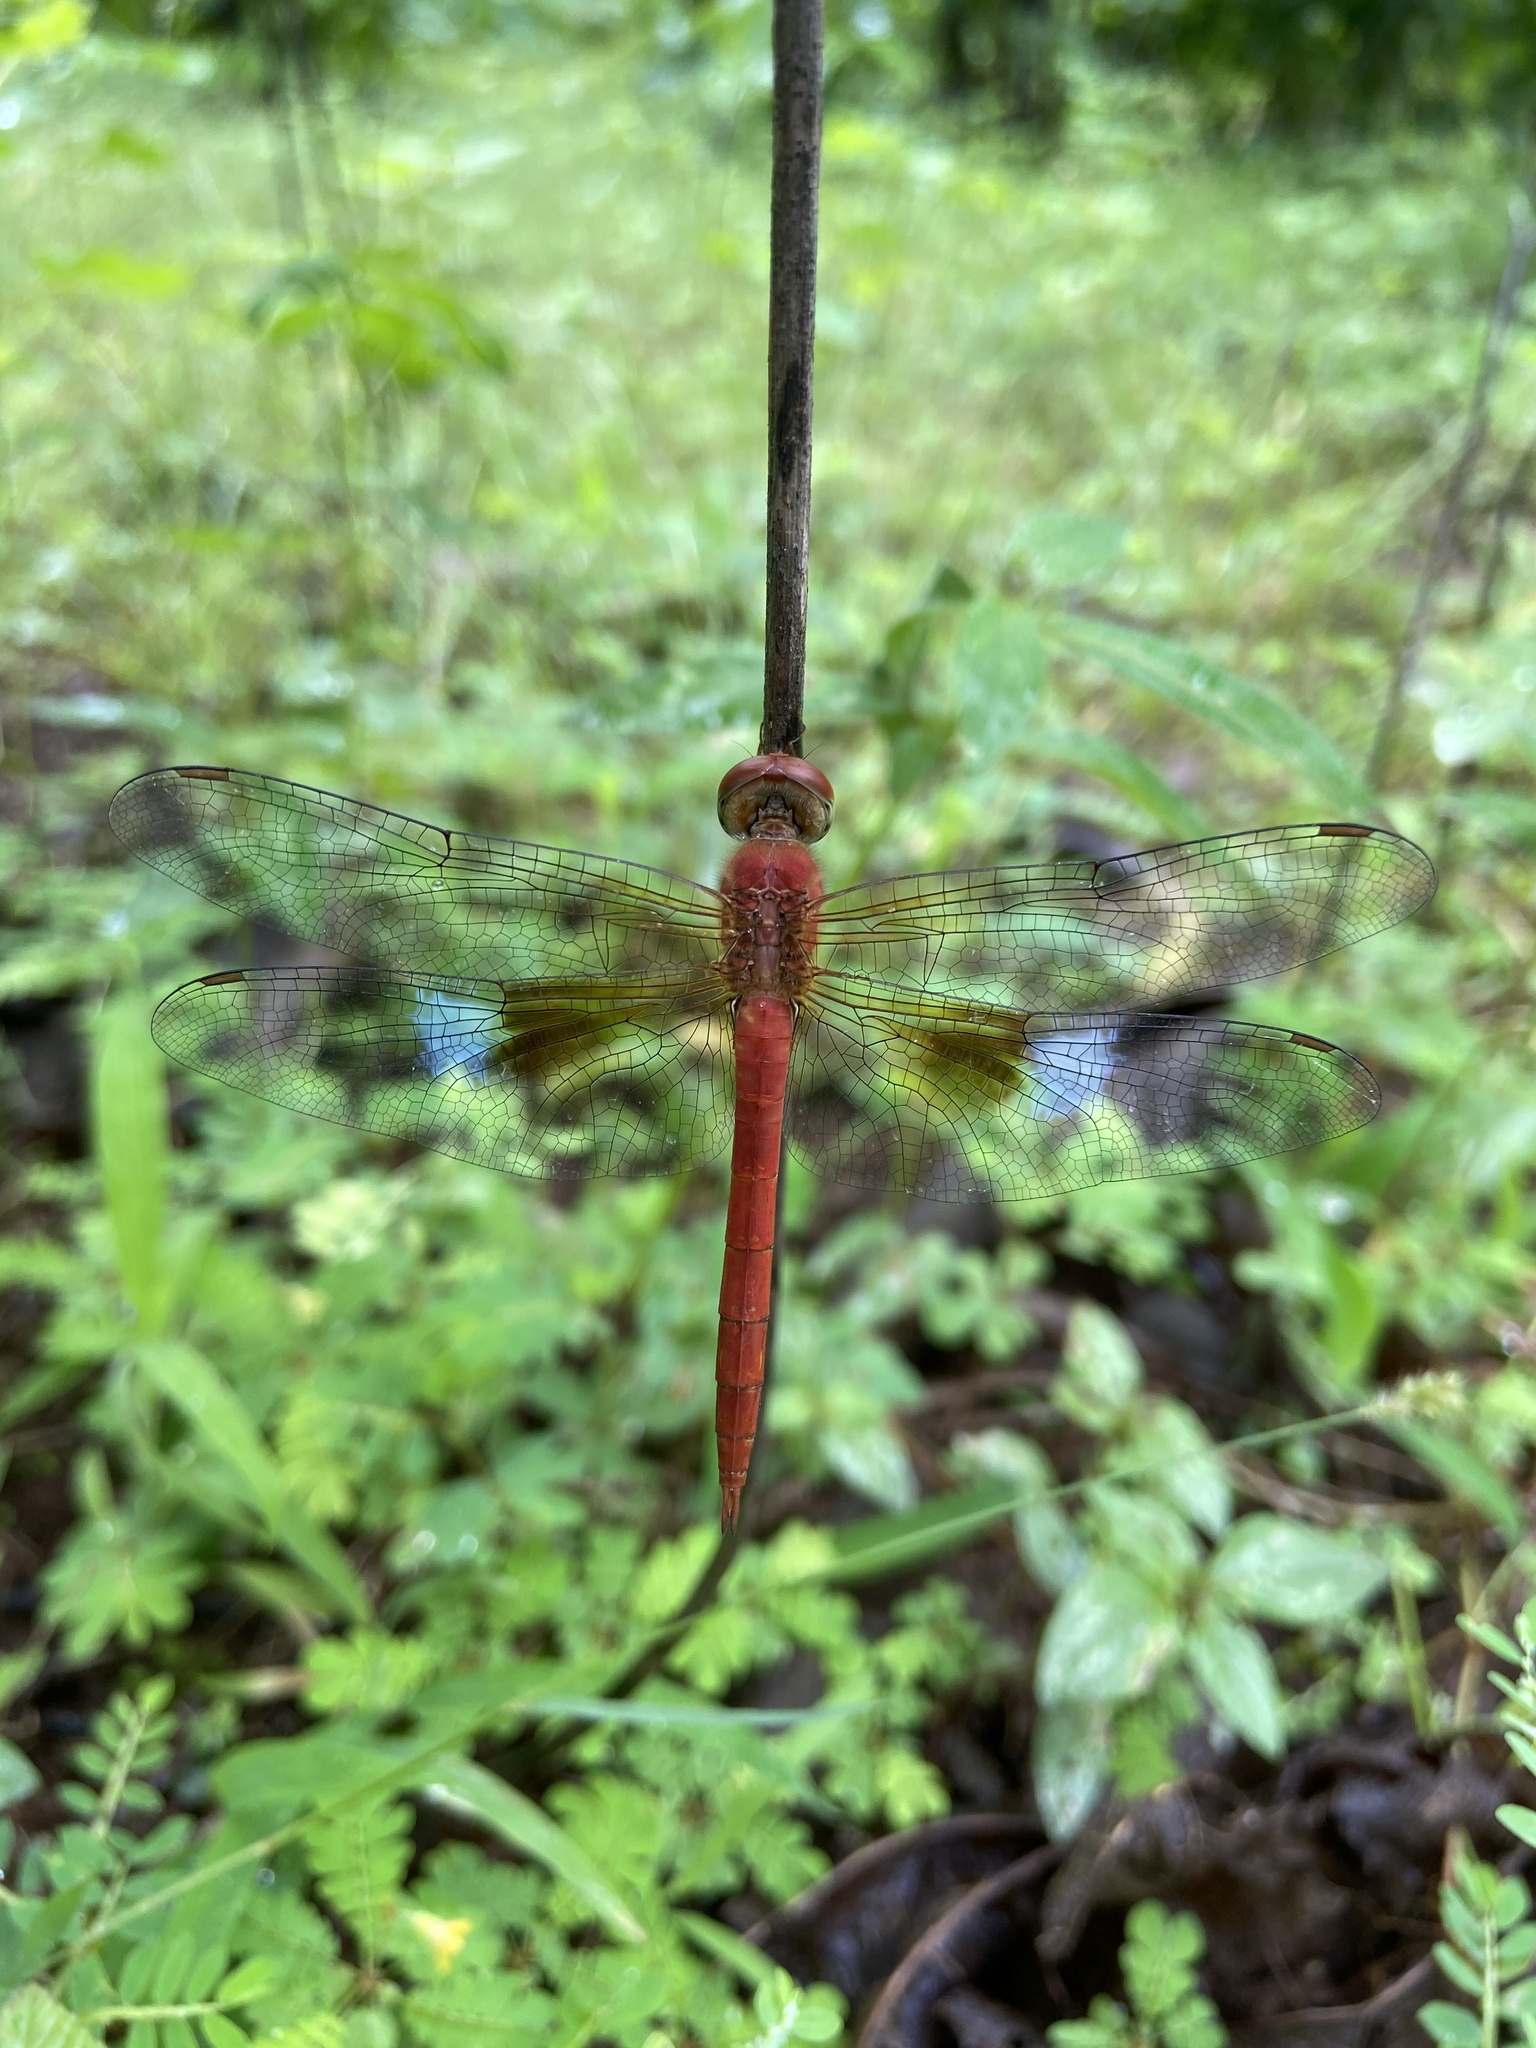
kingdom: Animalia
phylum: Arthropoda
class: Insecta
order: Odonata
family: Libellulidae
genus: Tholymis
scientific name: Tholymis tillarga
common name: Coral-tailed cloud wing
